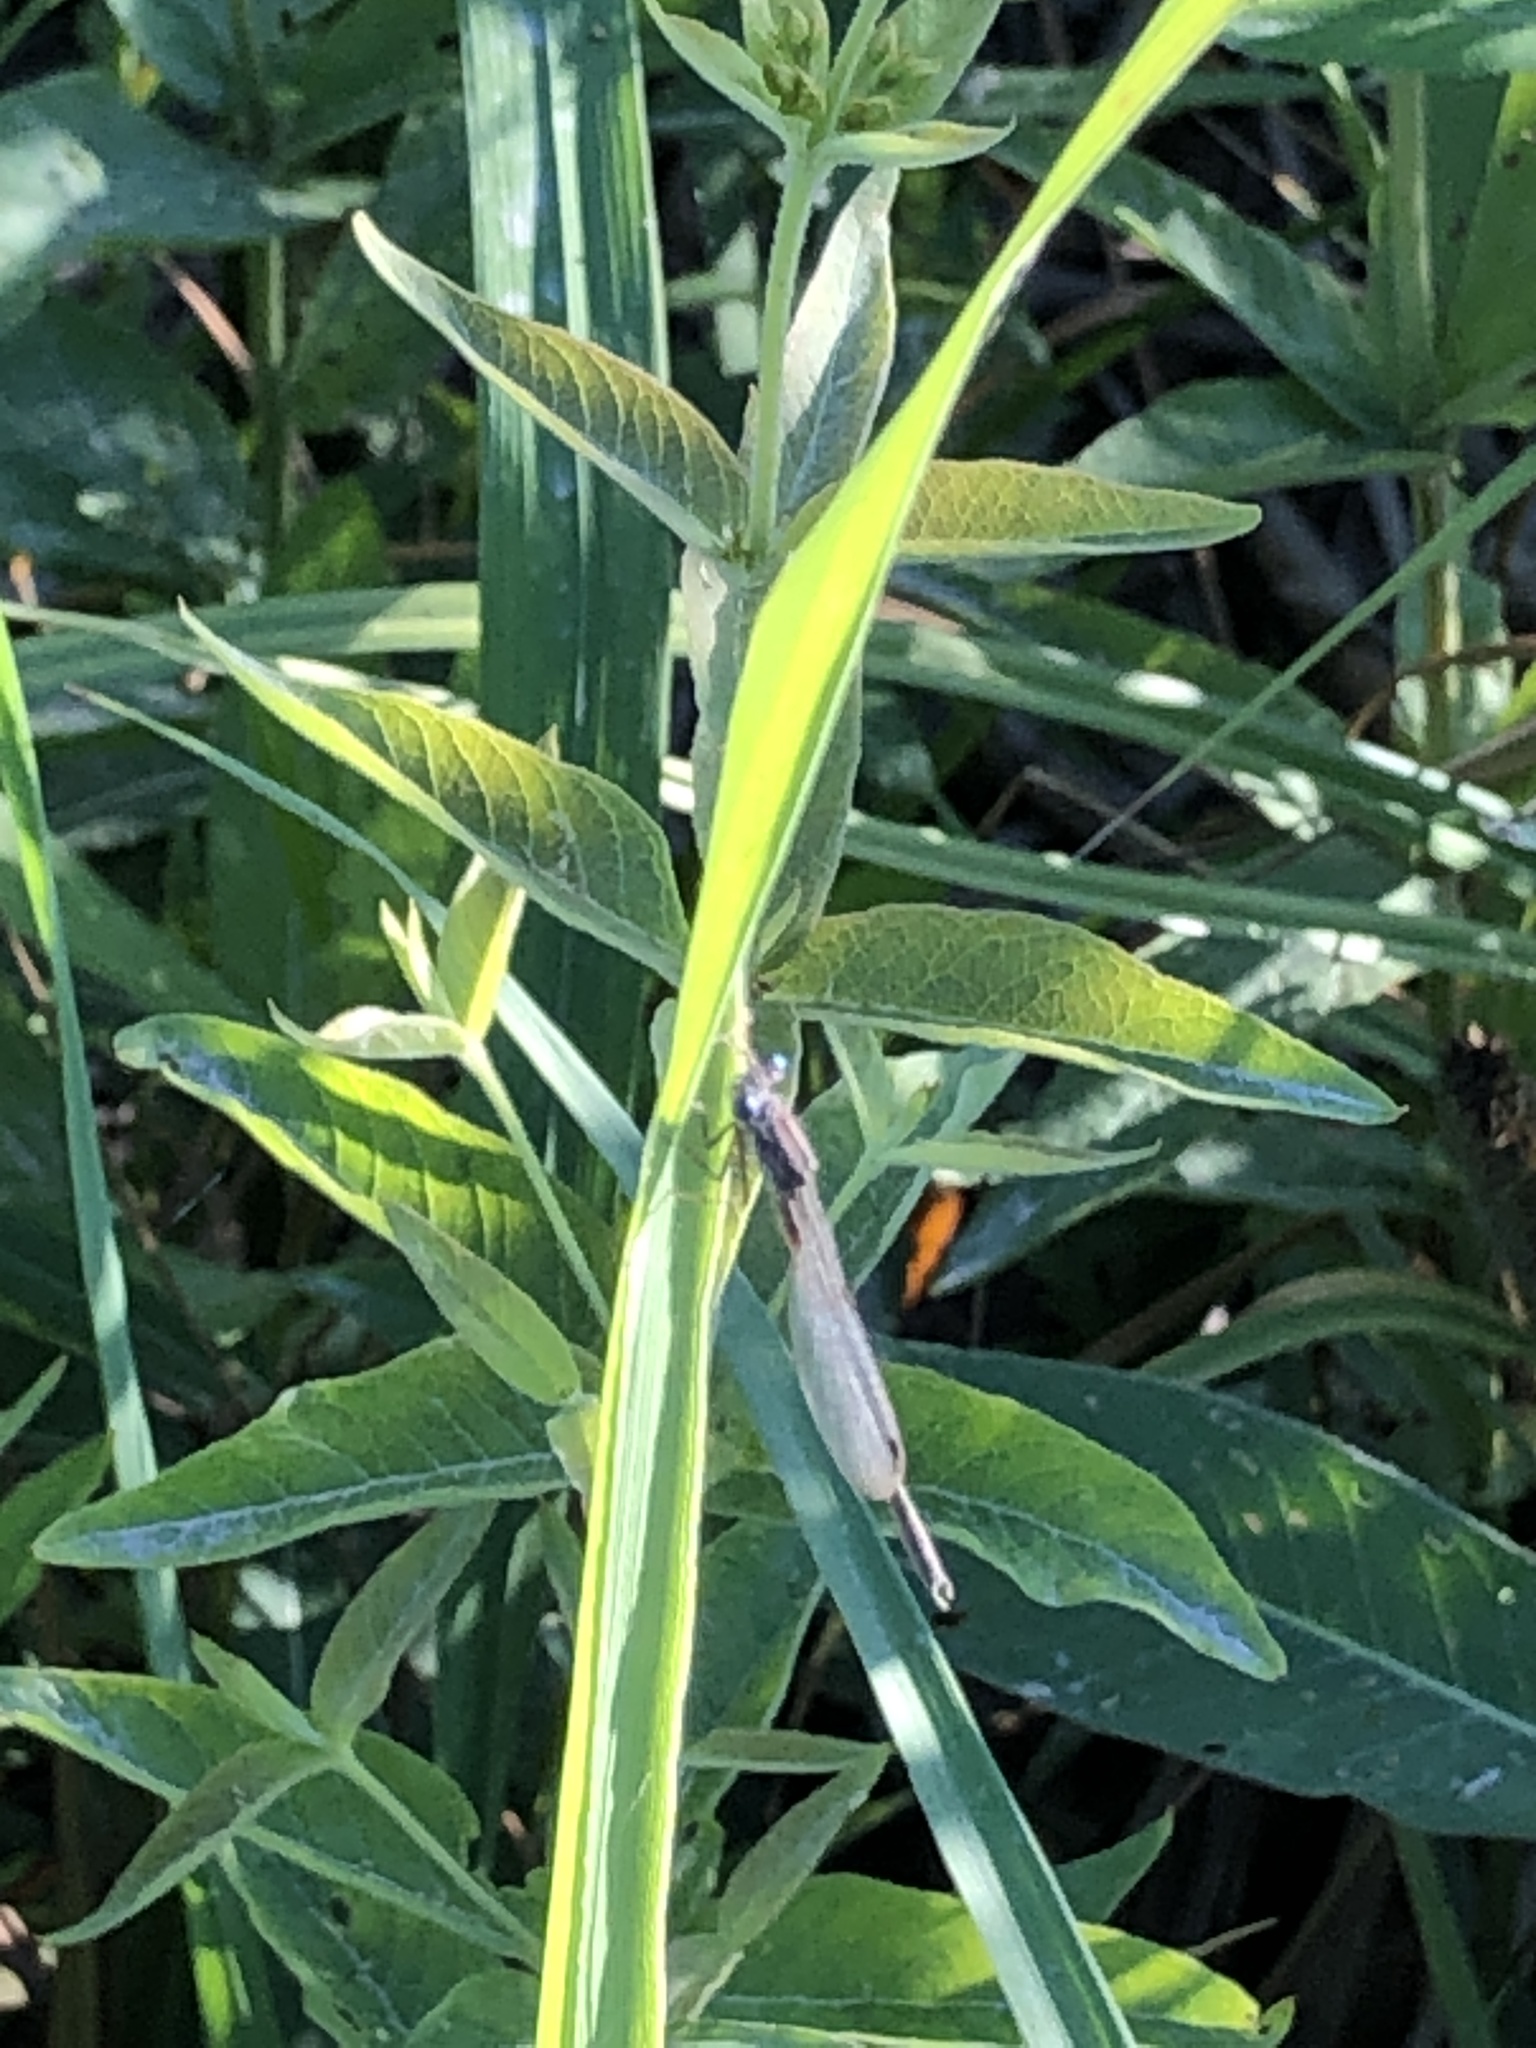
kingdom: Animalia
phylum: Arthropoda
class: Insecta
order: Odonata
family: Lestidae
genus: Sympecma
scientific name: Sympecma paedisca
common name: Siberian winter damsel
